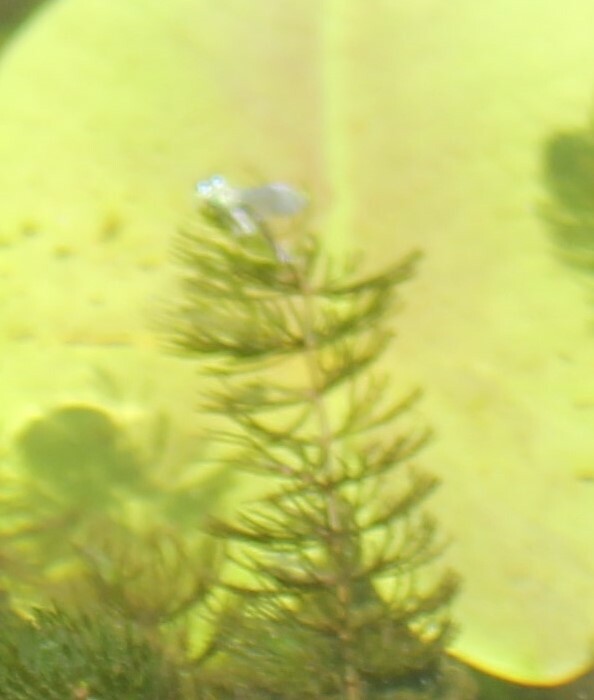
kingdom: Plantae
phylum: Tracheophyta
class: Magnoliopsida
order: Ceratophyllales
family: Ceratophyllaceae
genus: Ceratophyllum
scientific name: Ceratophyllum demersum
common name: Rigid hornwort
